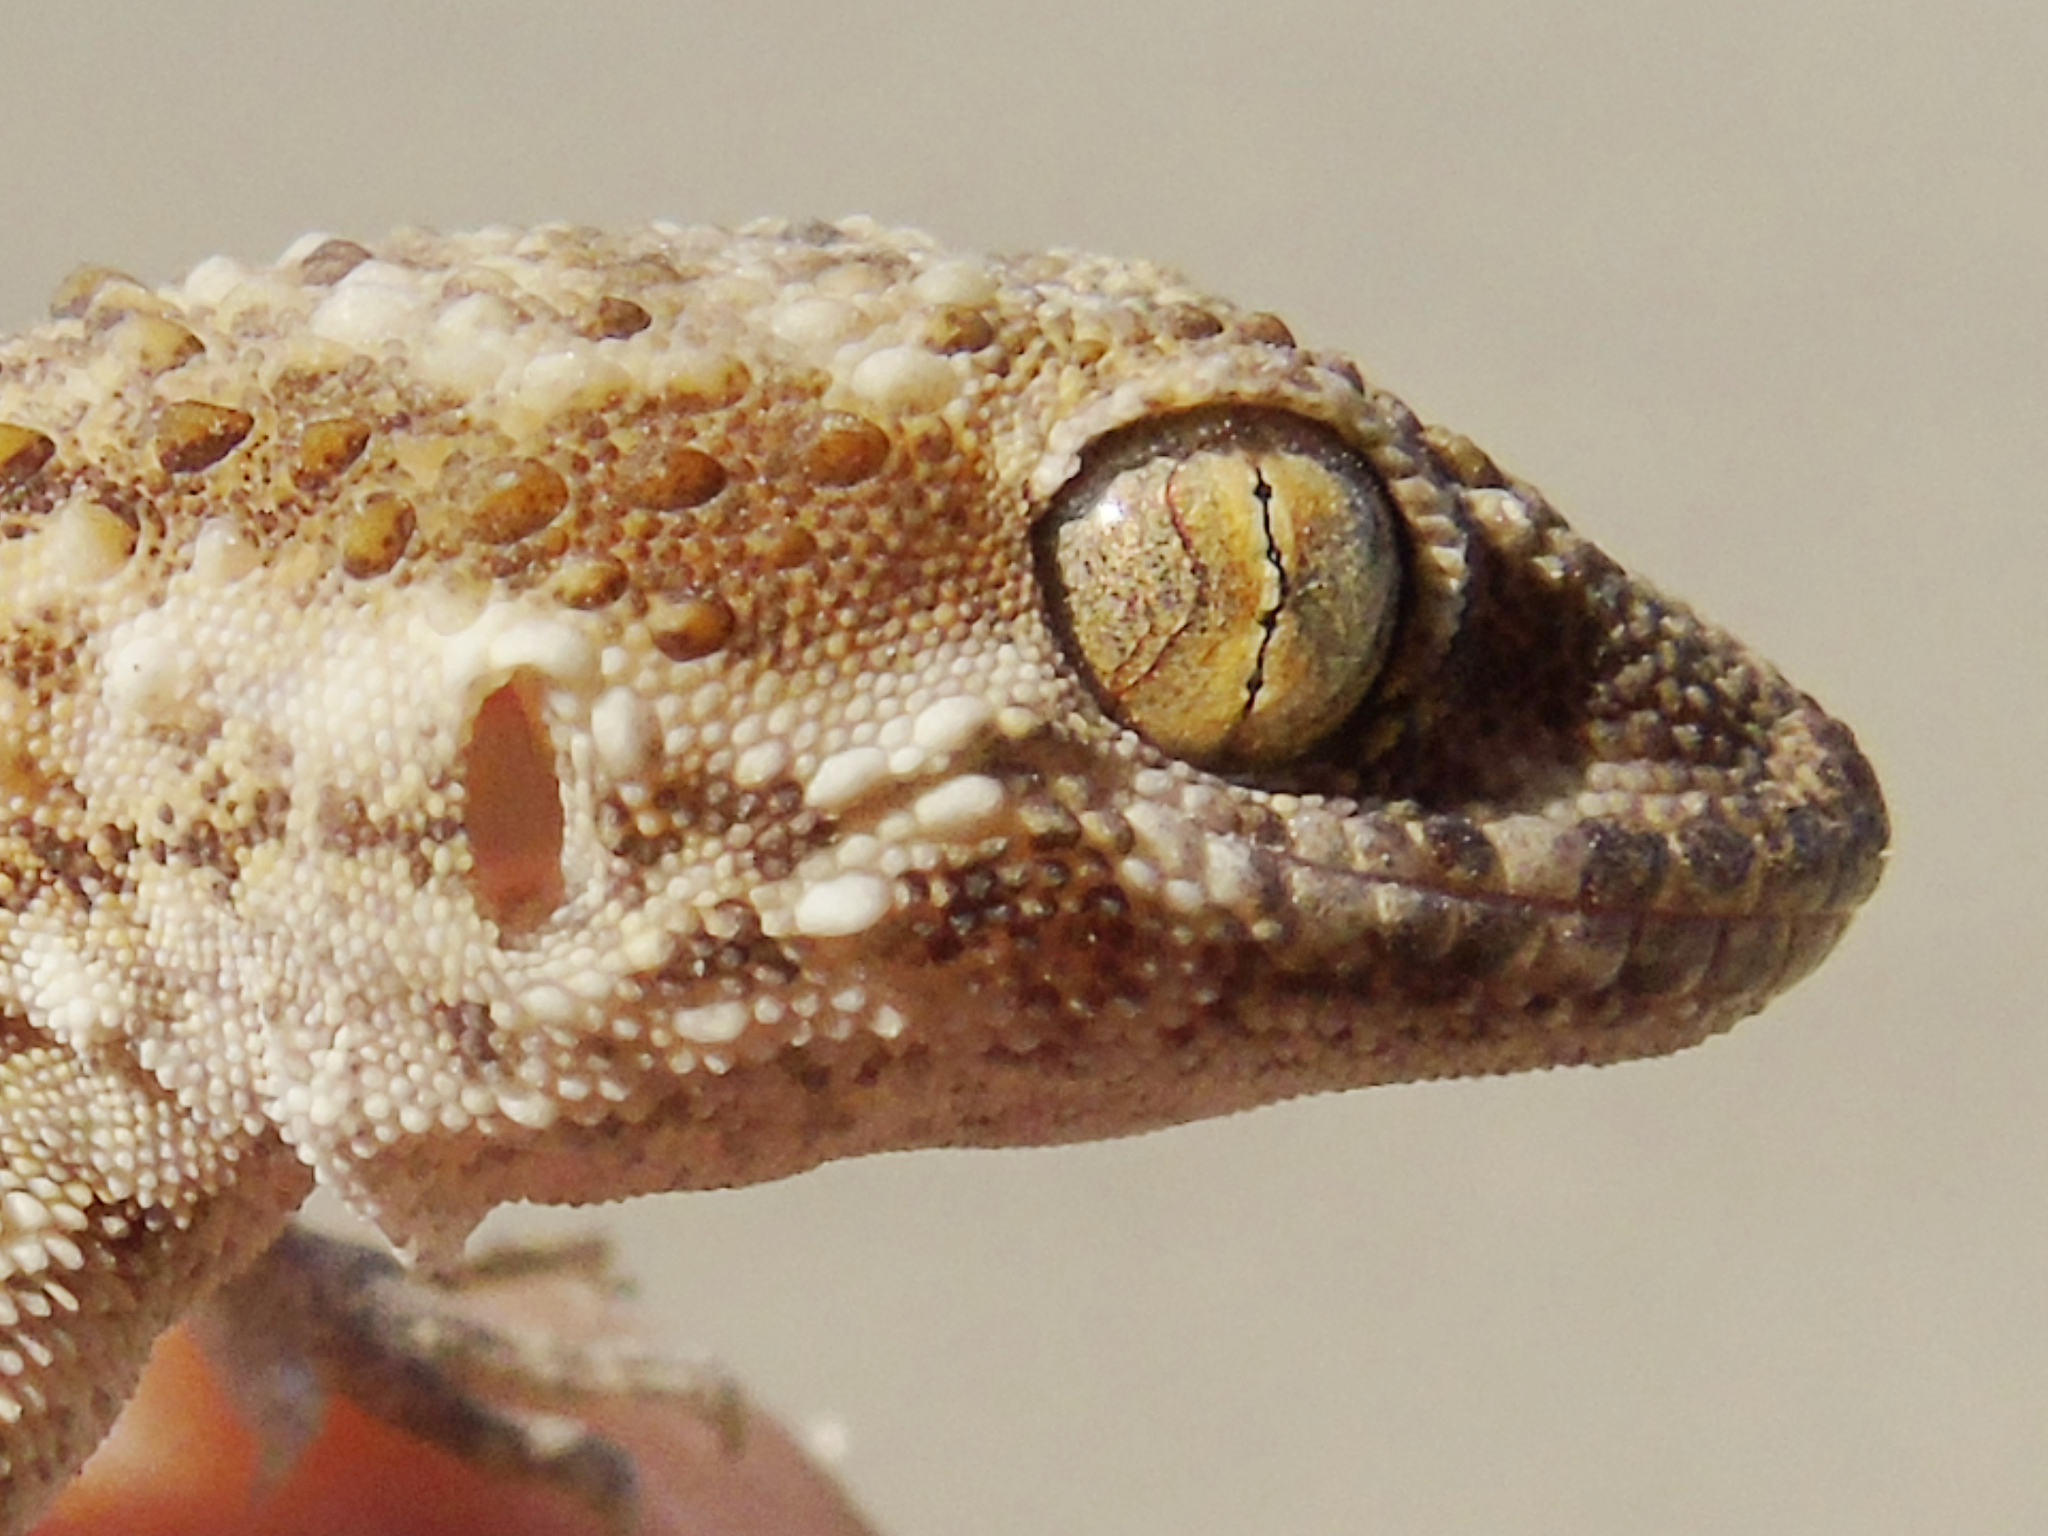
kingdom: Animalia
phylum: Chordata
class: Squamata
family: Gekkonidae
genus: Bunopus
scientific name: Bunopus tuberculatus
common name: Southern tuberculated gecko
